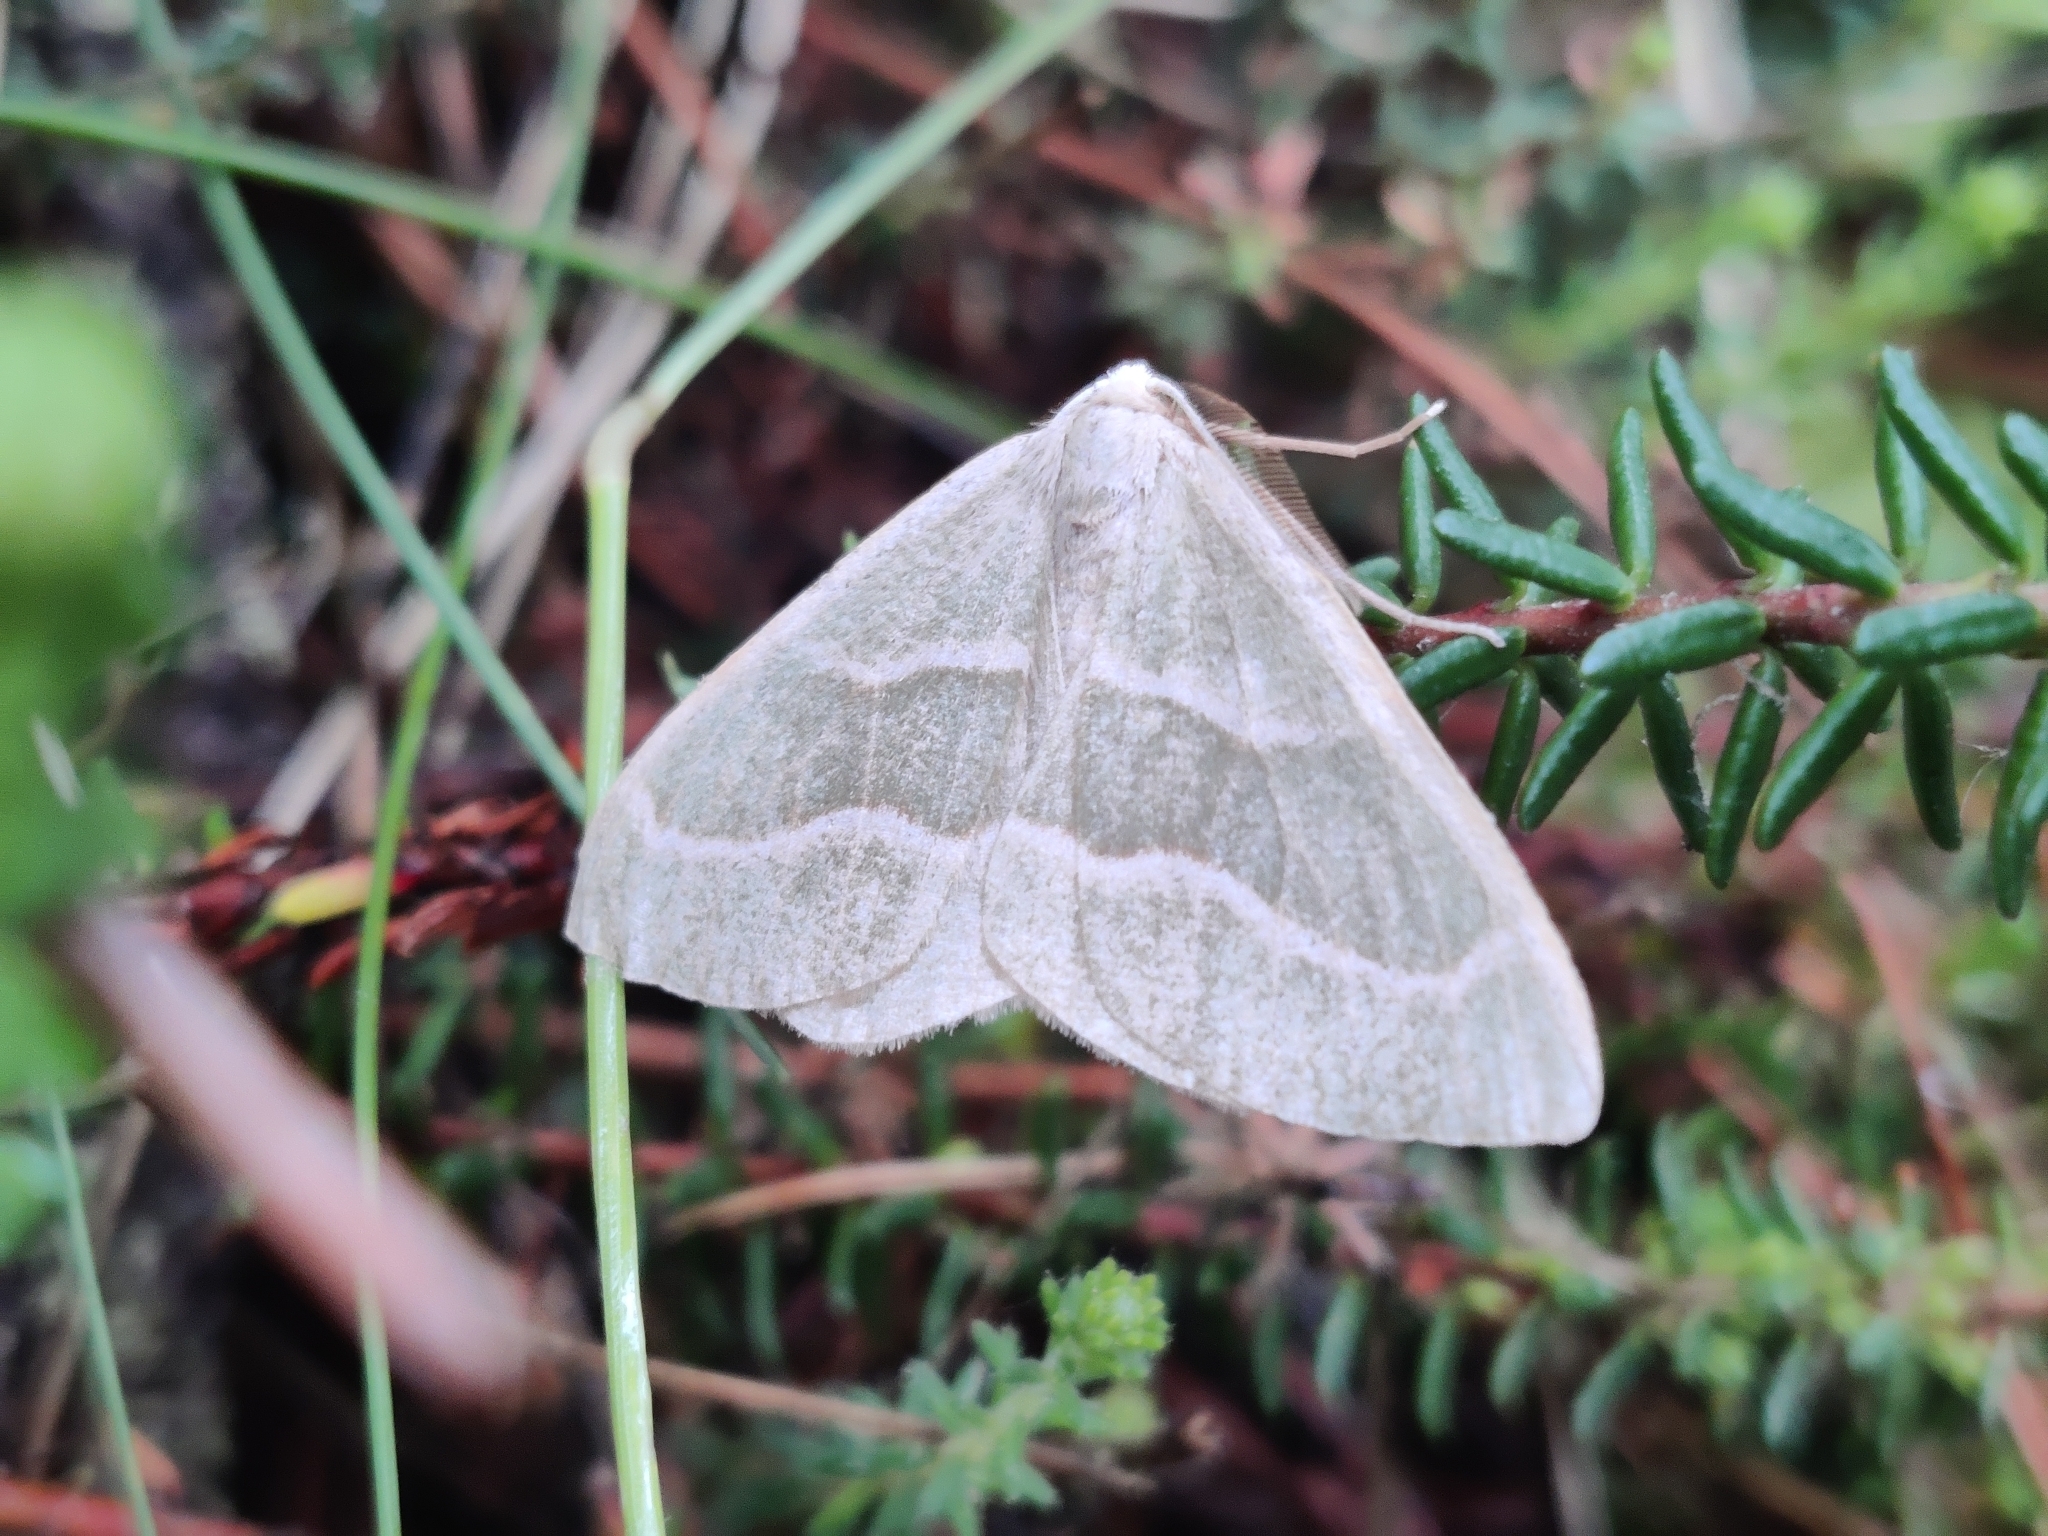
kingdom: Animalia
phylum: Arthropoda
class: Insecta
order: Lepidoptera
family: Geometridae
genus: Hylaea
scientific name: Hylaea fasciaria
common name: Barred red
